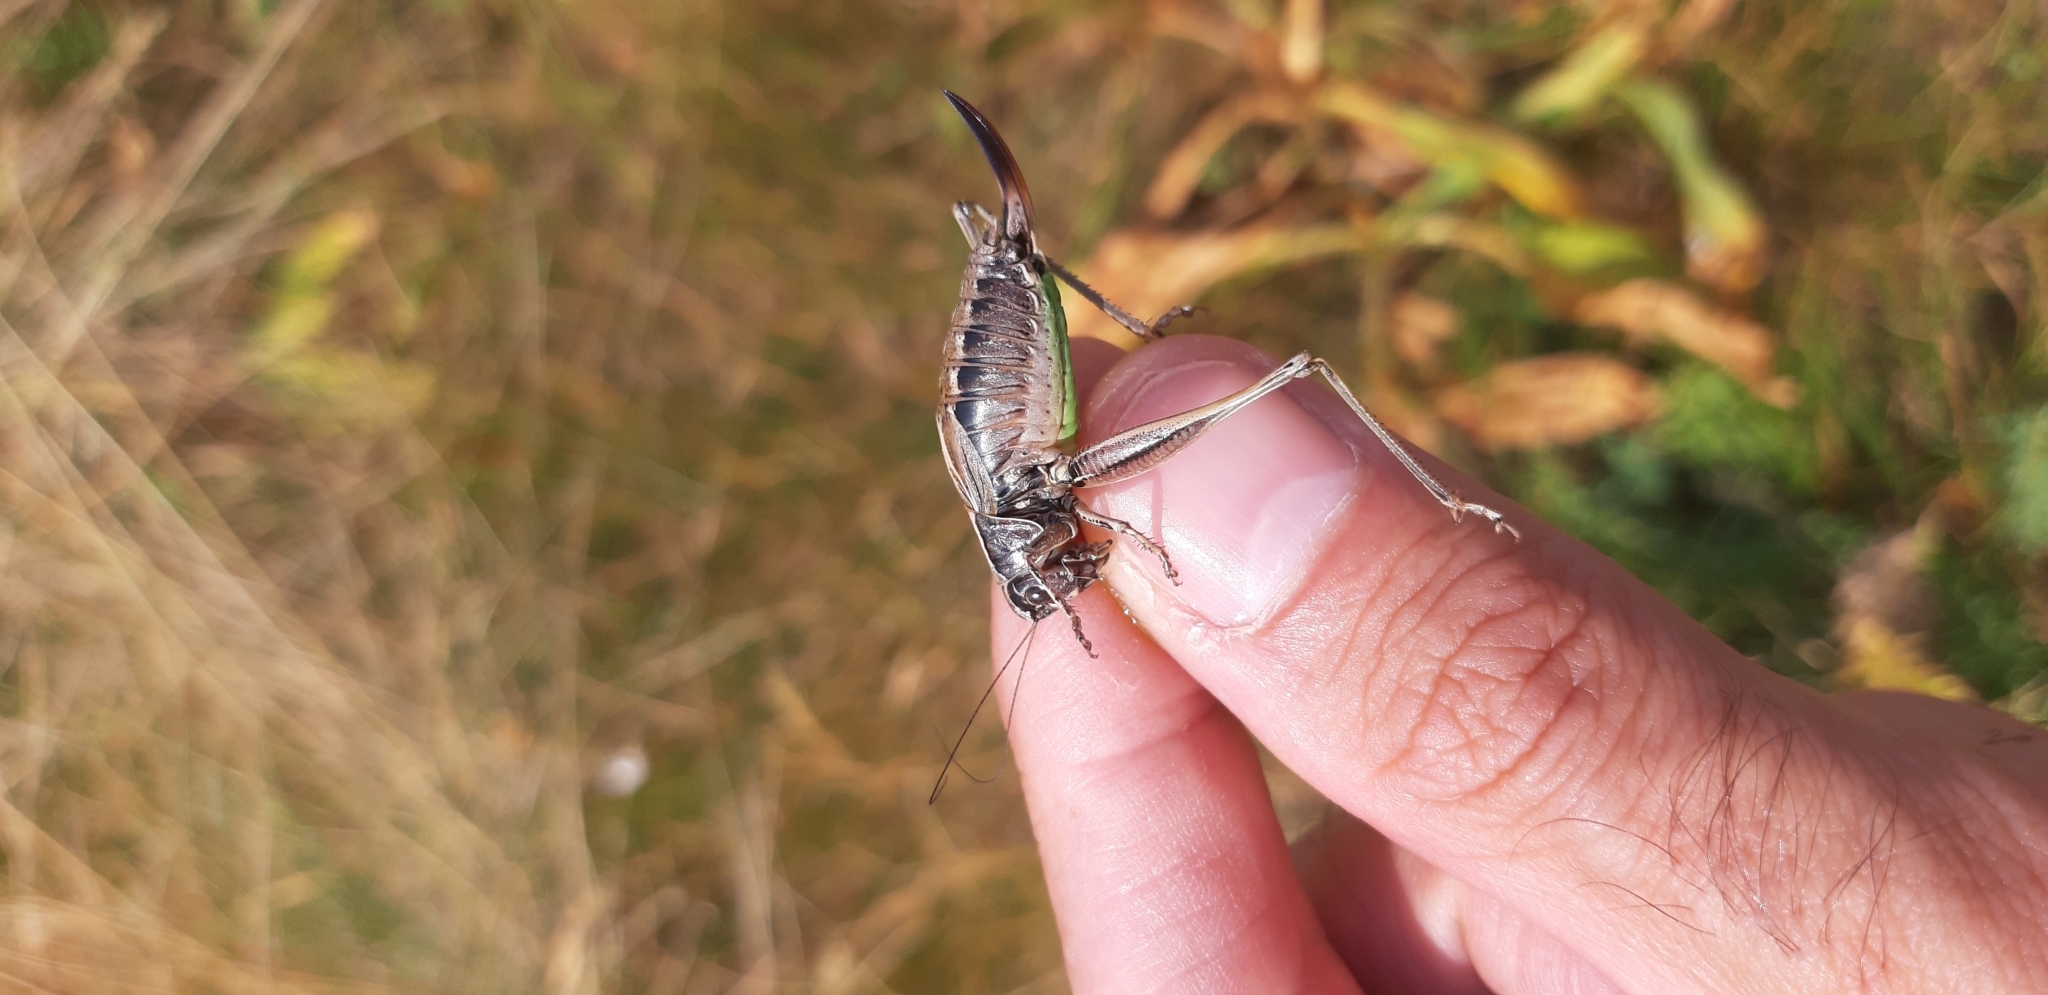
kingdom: Animalia
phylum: Arthropoda
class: Insecta
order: Orthoptera
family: Tettigoniidae
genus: Metrioptera
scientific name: Metrioptera caprai
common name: Italian meadow bush-cricket
